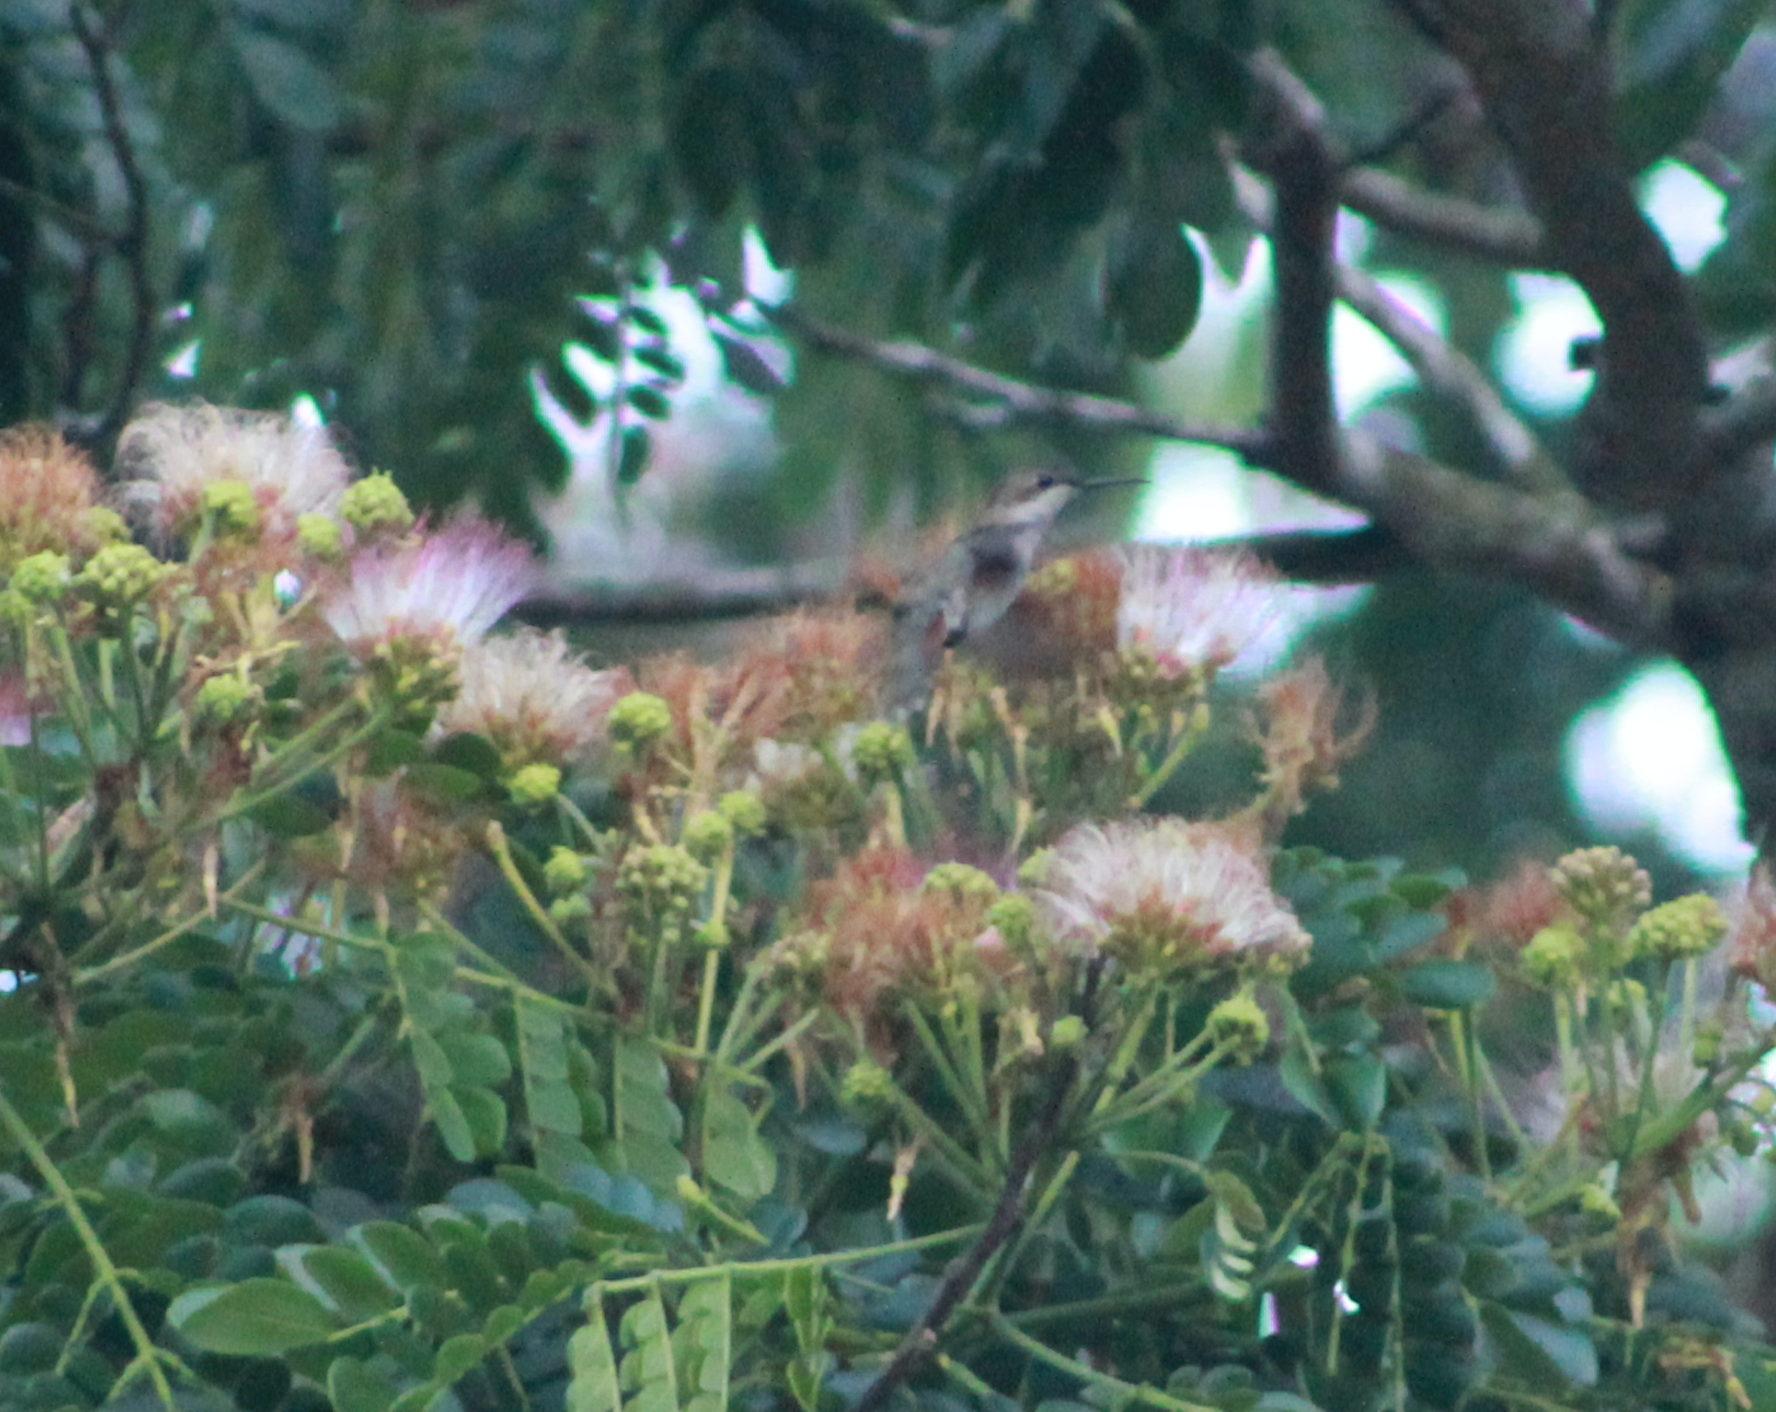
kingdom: Animalia
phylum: Chordata
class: Aves
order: Apodiformes
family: Trochilidae
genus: Chrysolampis
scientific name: Chrysolampis mosquitus
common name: Ruby-topaz hummingbird
